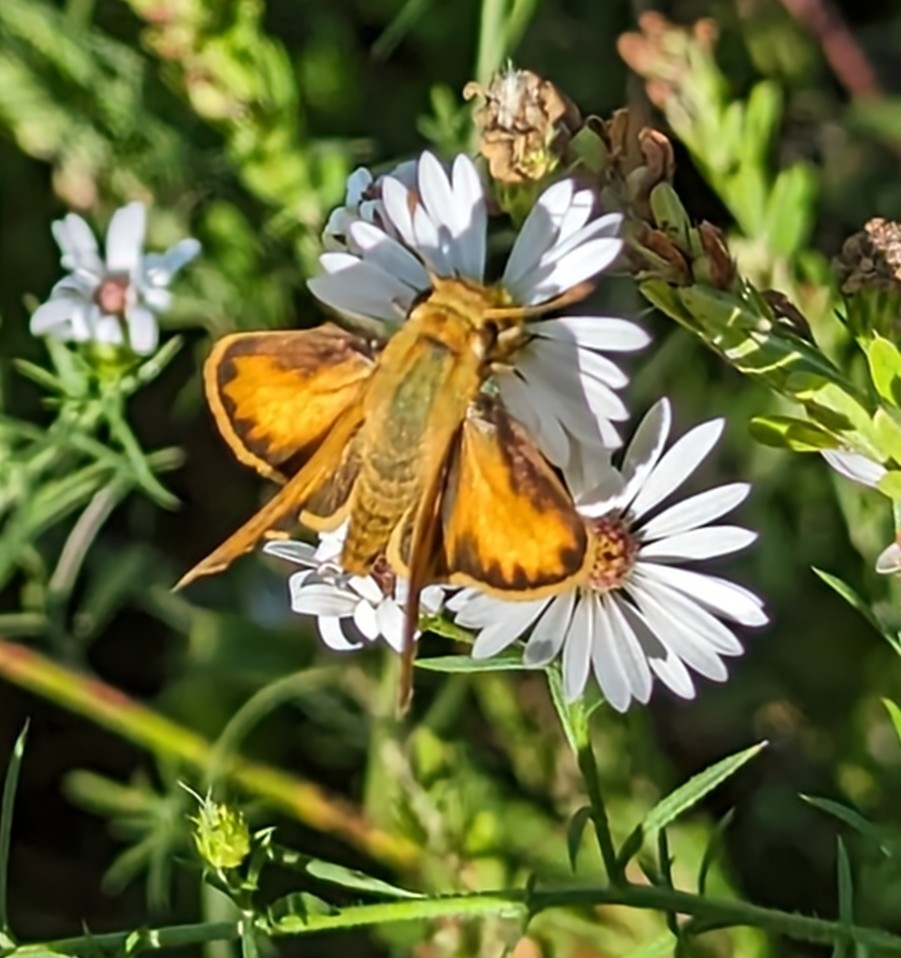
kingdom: Animalia
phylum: Arthropoda
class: Insecta
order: Lepidoptera
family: Hesperiidae
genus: Hylephila
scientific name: Hylephila phyleus
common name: Fiery skipper
